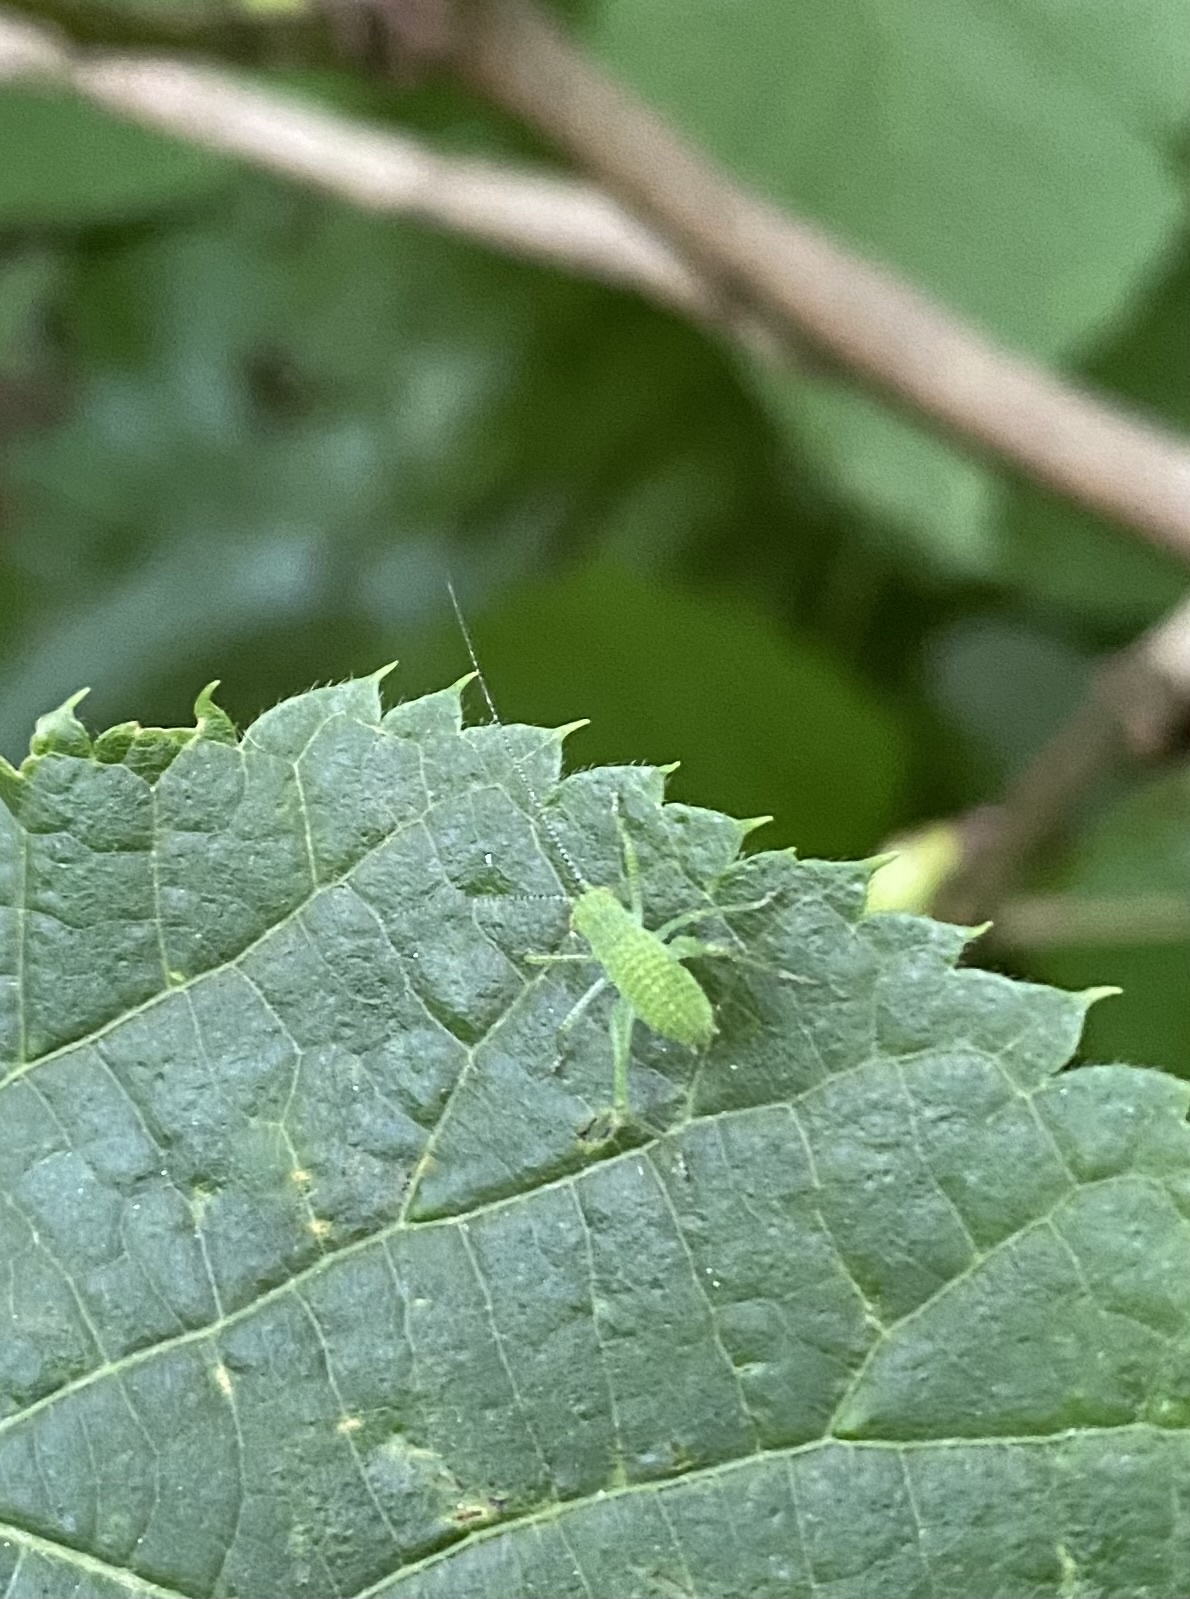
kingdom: Animalia
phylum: Arthropoda
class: Insecta
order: Orthoptera
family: Tettigoniidae
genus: Leptophyes
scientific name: Leptophyes
